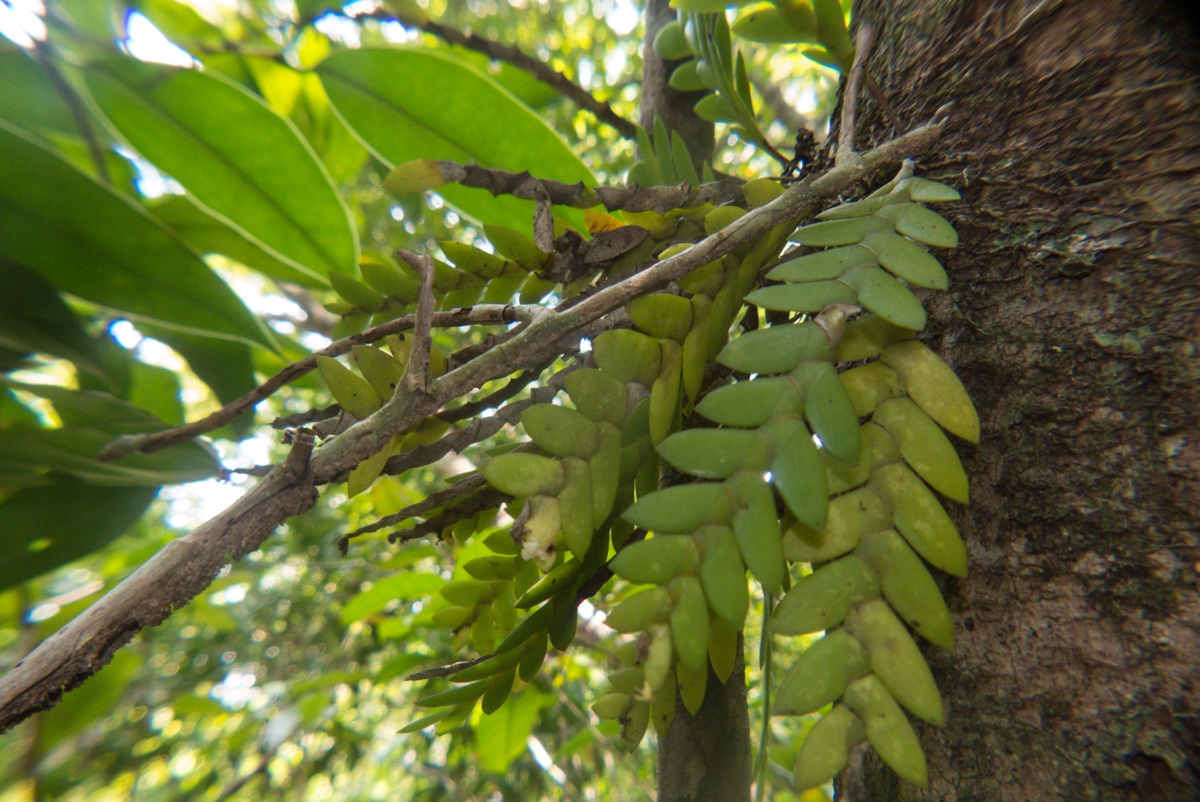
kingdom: Plantae
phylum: Tracheophyta
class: Liliopsida
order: Asparagales
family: Orchidaceae
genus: Dendrobium
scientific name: Dendrobium aloifolium
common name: Aloe-like dendrobium
